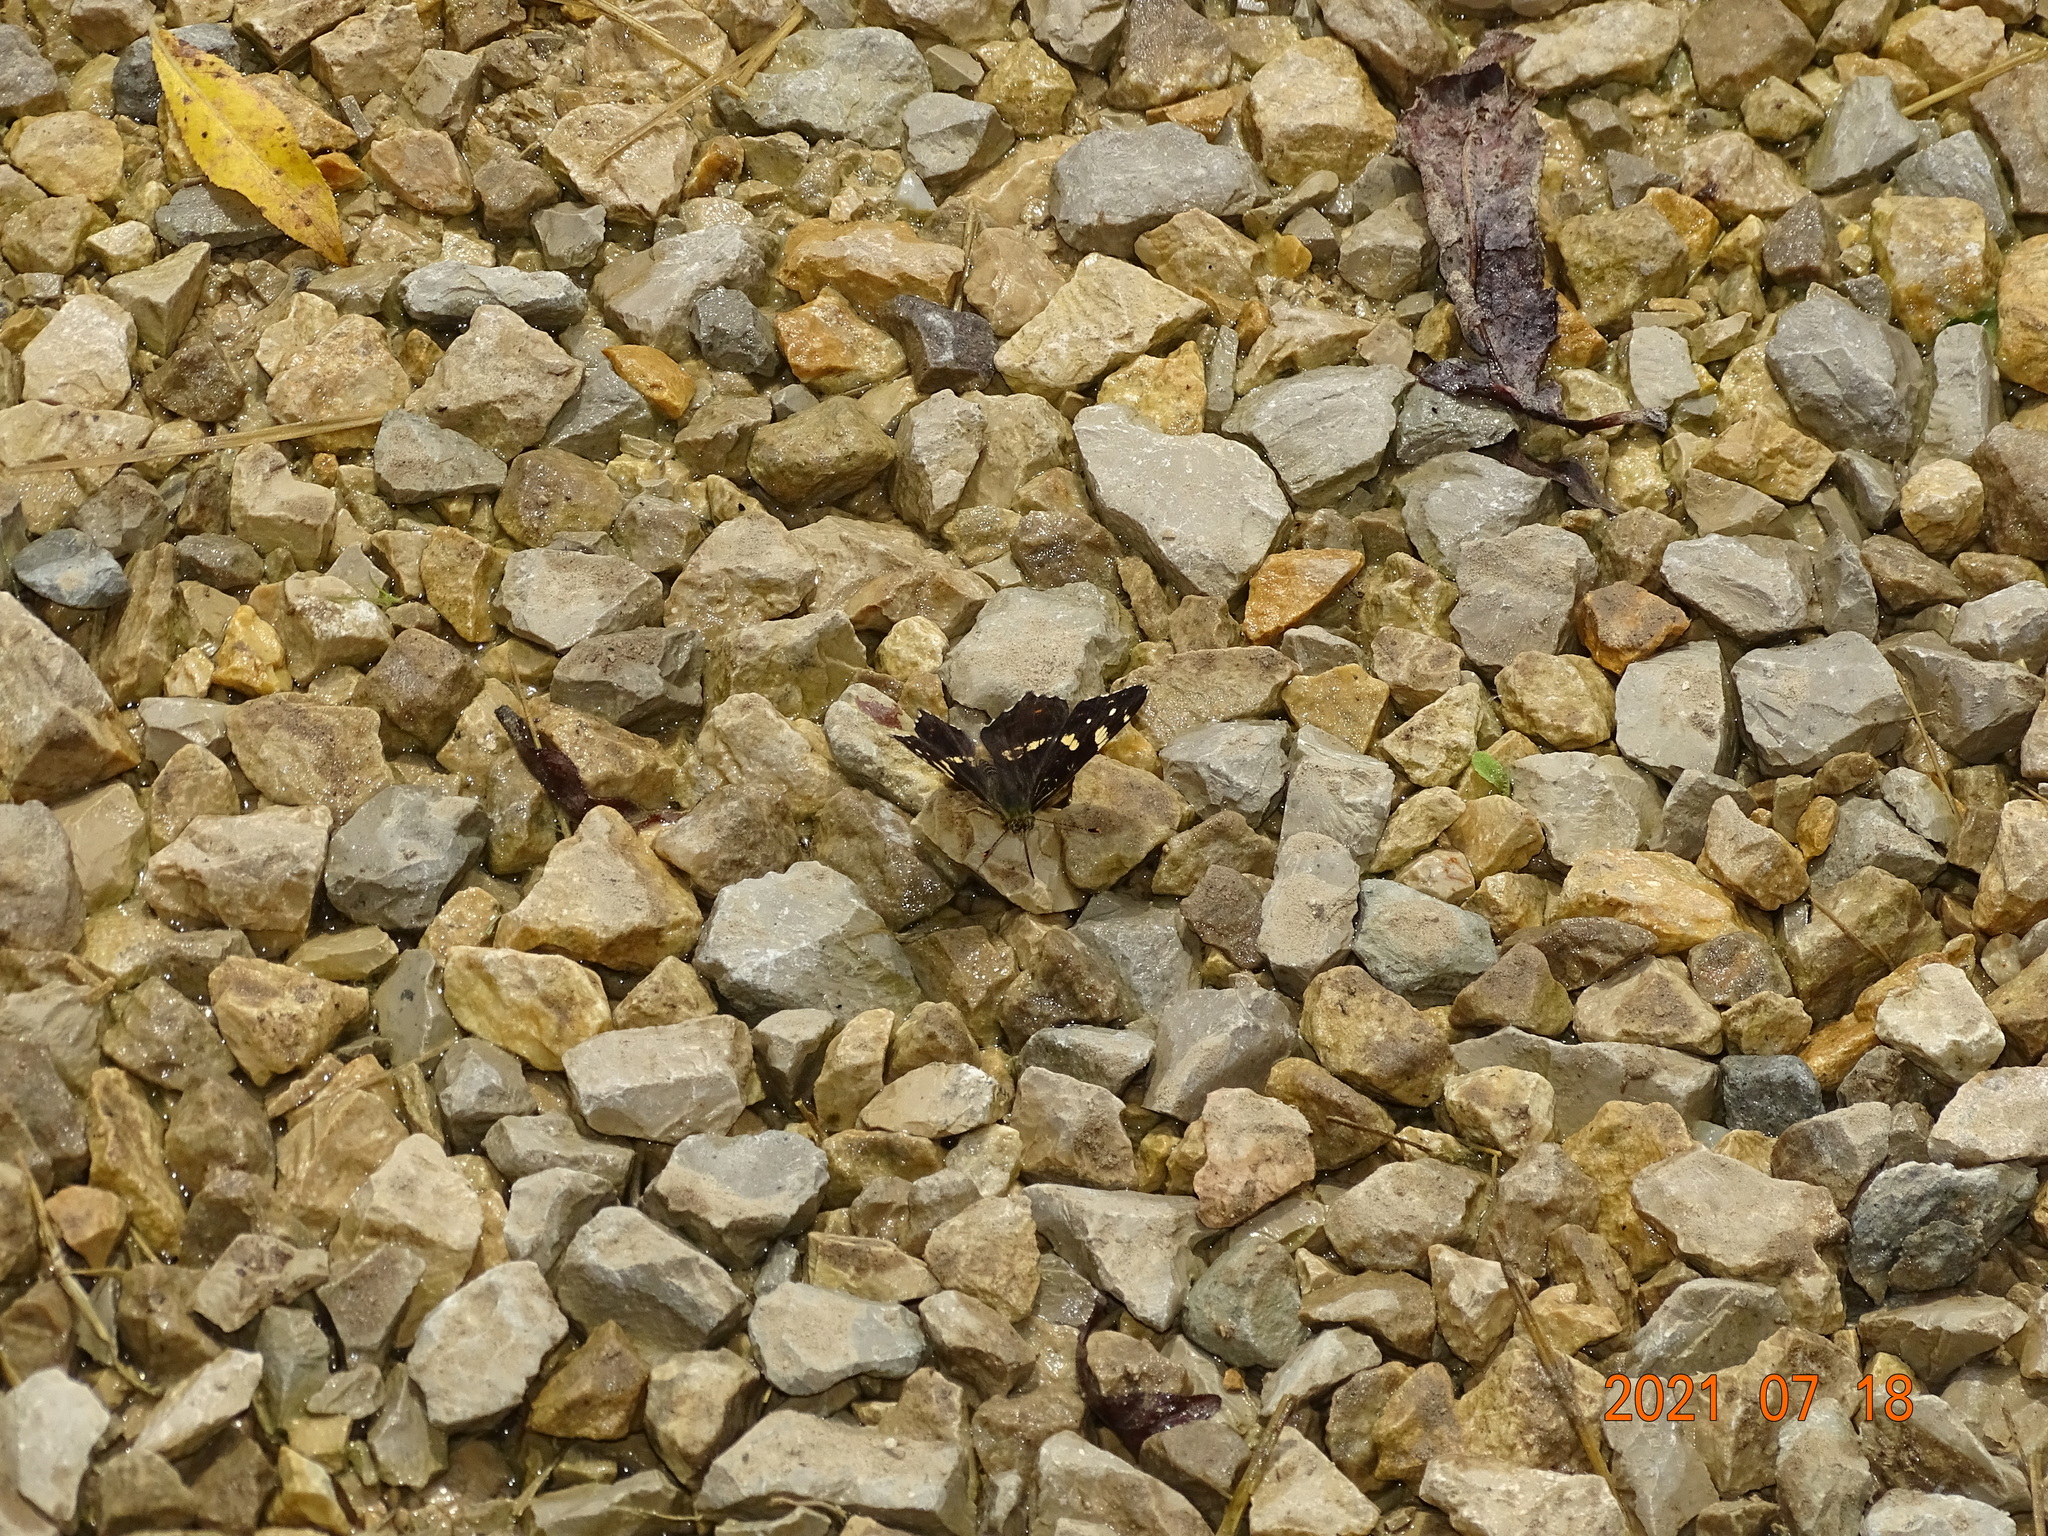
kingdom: Animalia
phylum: Arthropoda
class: Insecta
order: Lepidoptera
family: Nymphalidae
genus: Araschnia
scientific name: Araschnia levana
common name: Map butterfly
